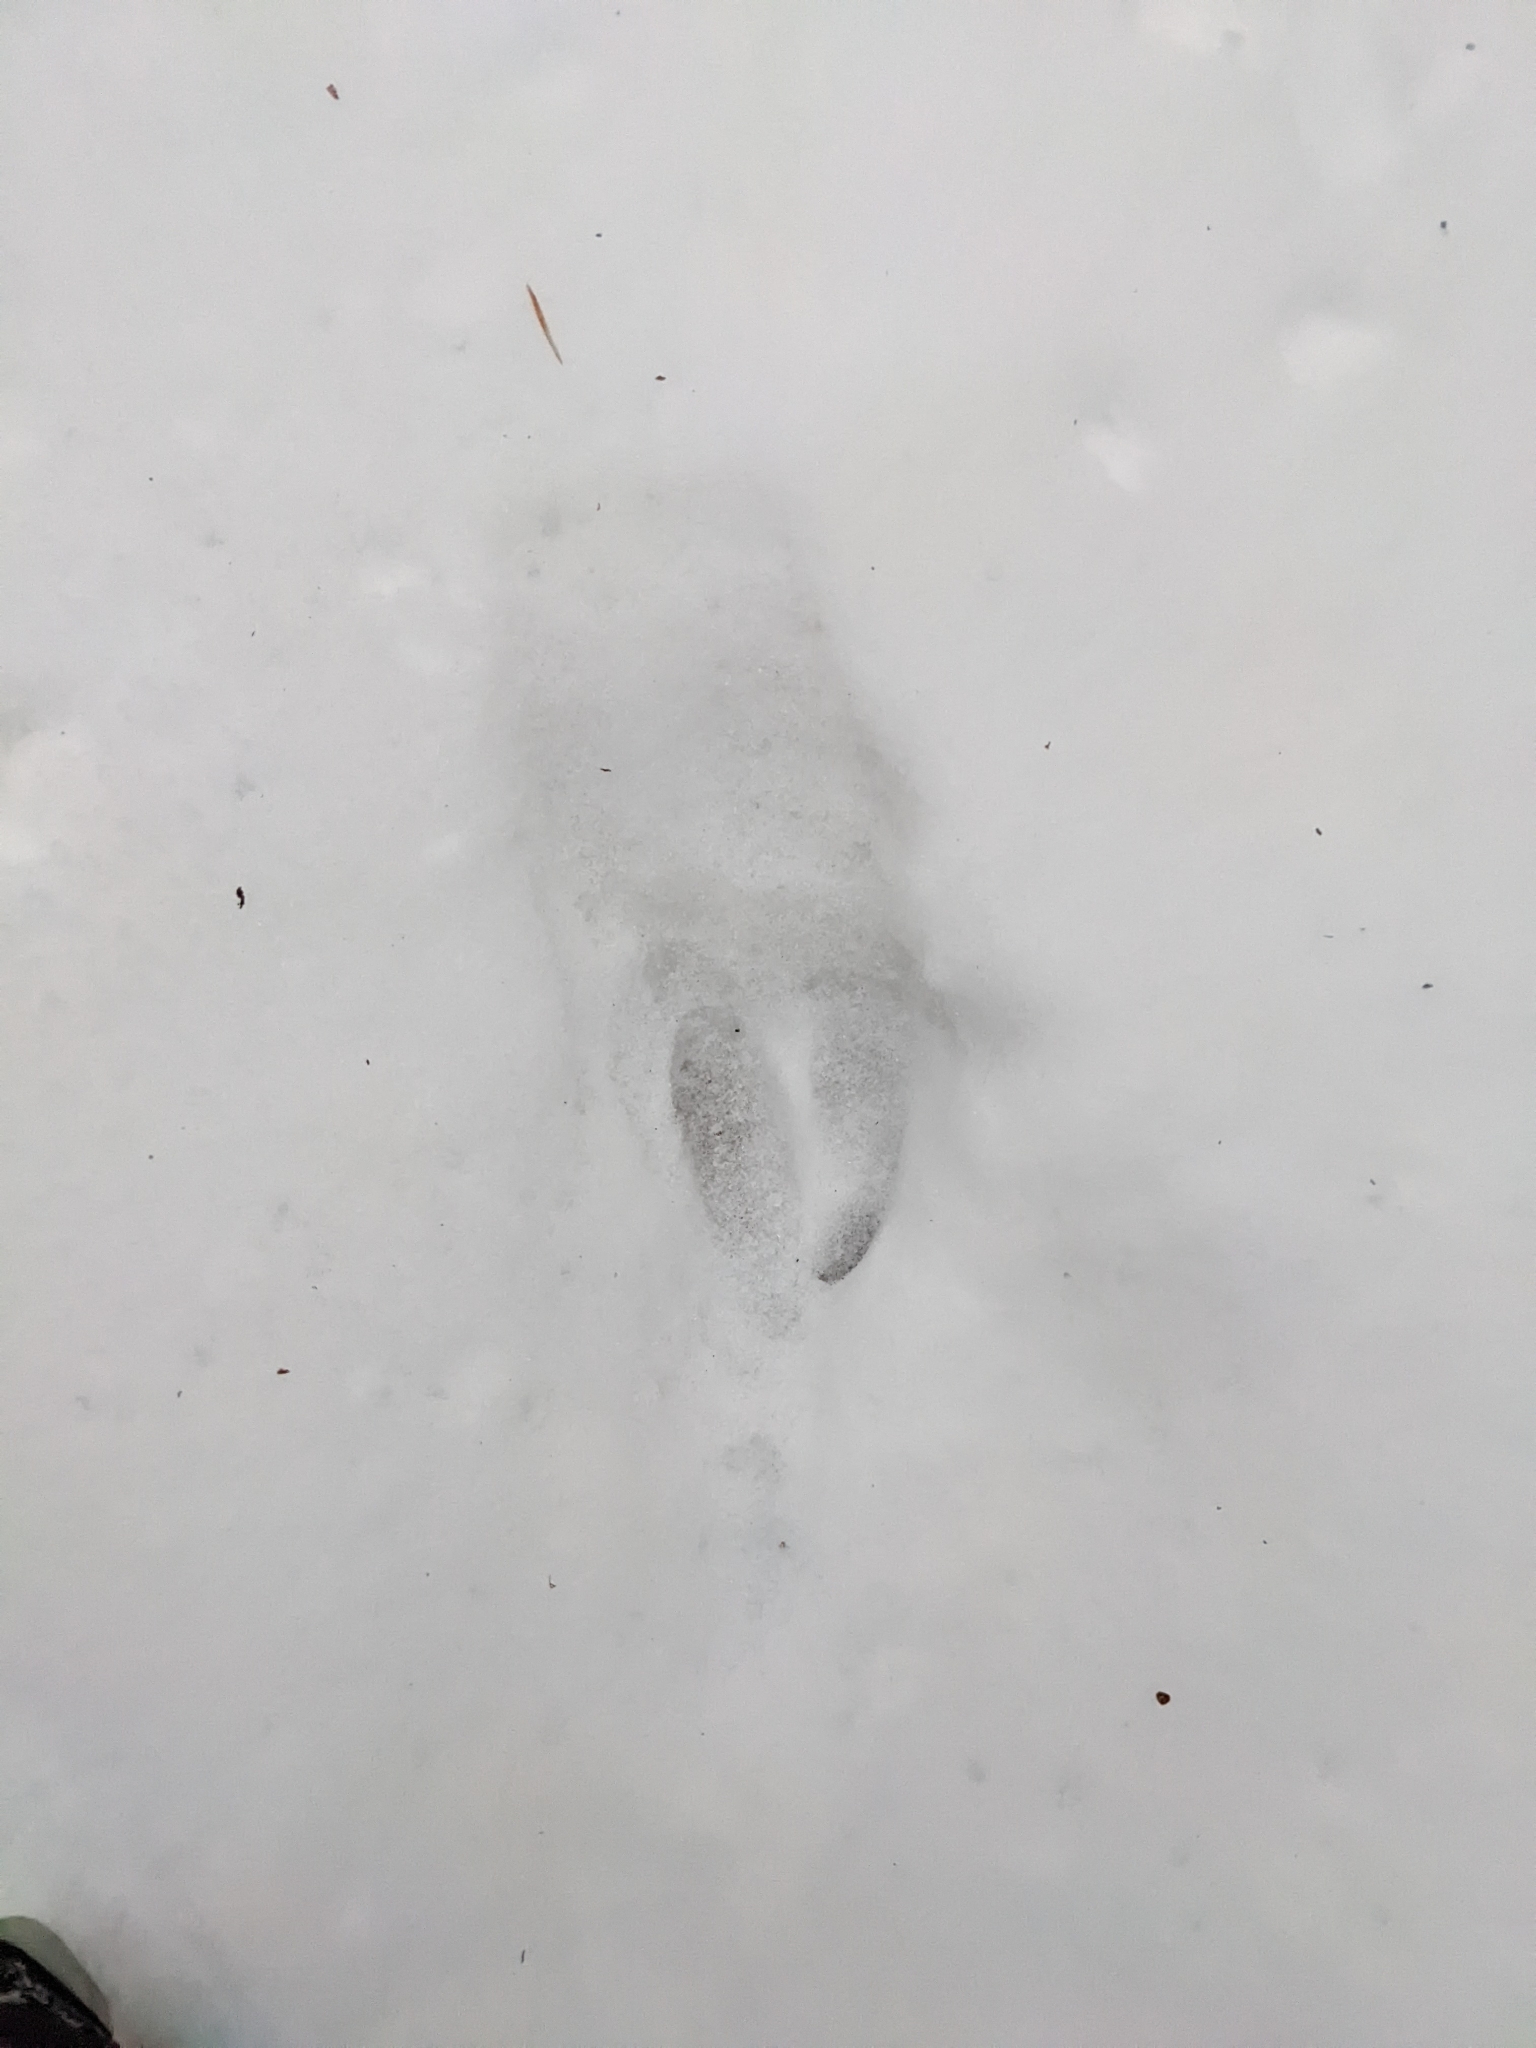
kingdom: Animalia
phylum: Chordata
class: Mammalia
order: Artiodactyla
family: Cervidae
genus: Odocoileus
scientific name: Odocoileus virginianus
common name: White-tailed deer
